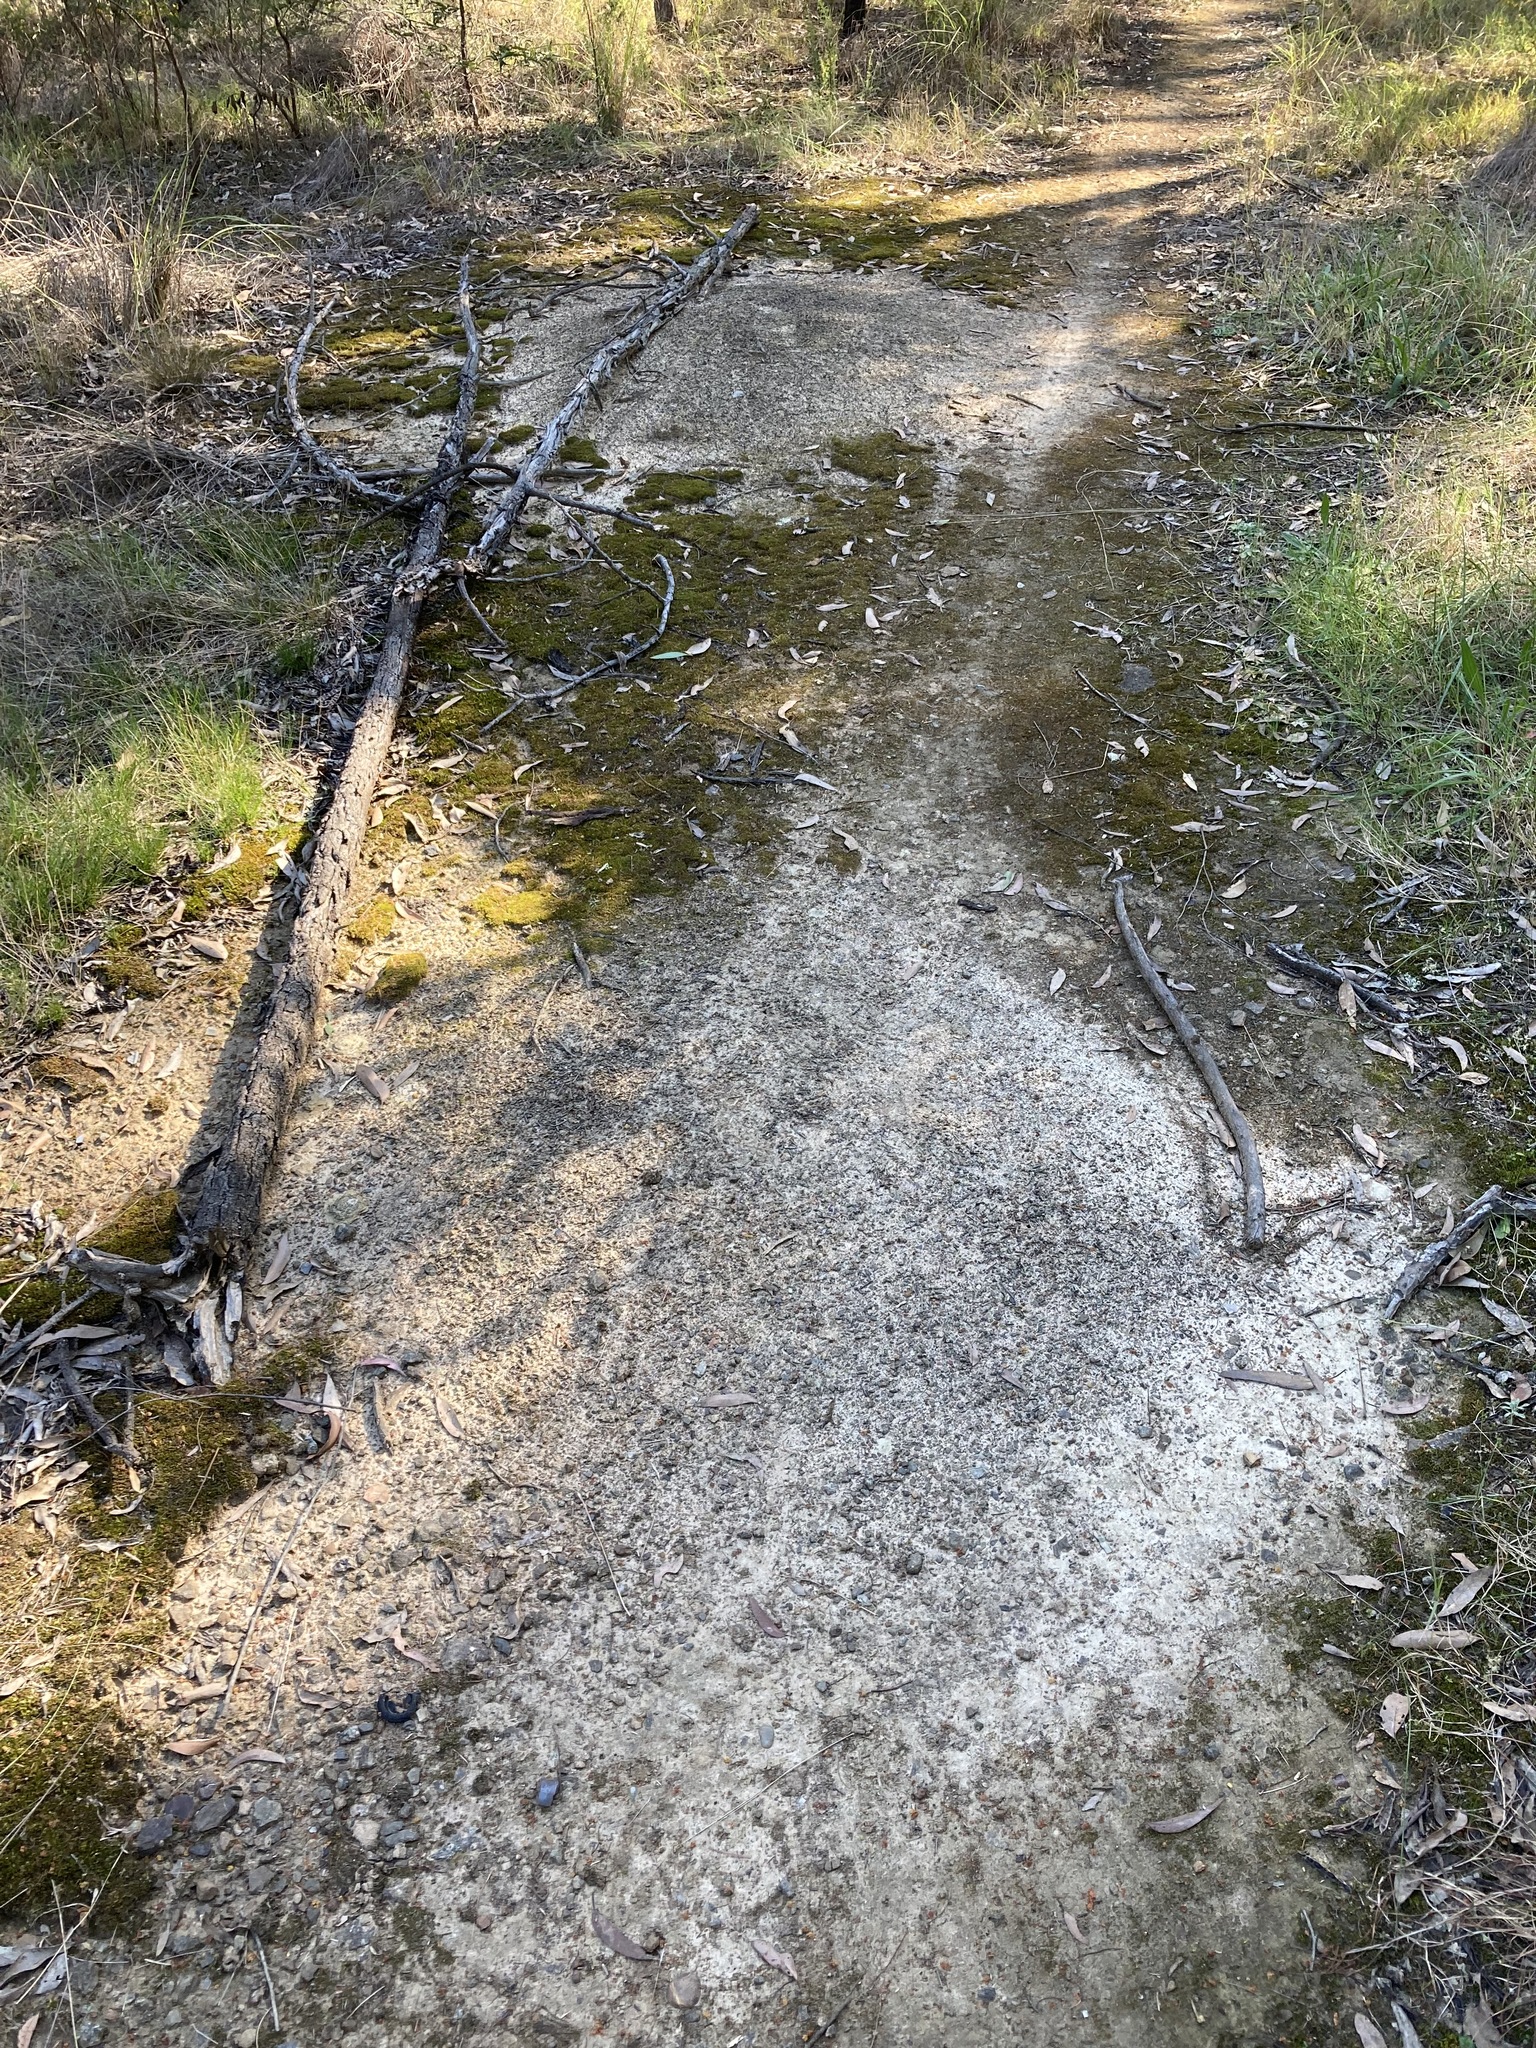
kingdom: Animalia
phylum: Arthropoda
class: Insecta
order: Hymenoptera
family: Formicidae
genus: Iridomyrmex
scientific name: Iridomyrmex purpureus
